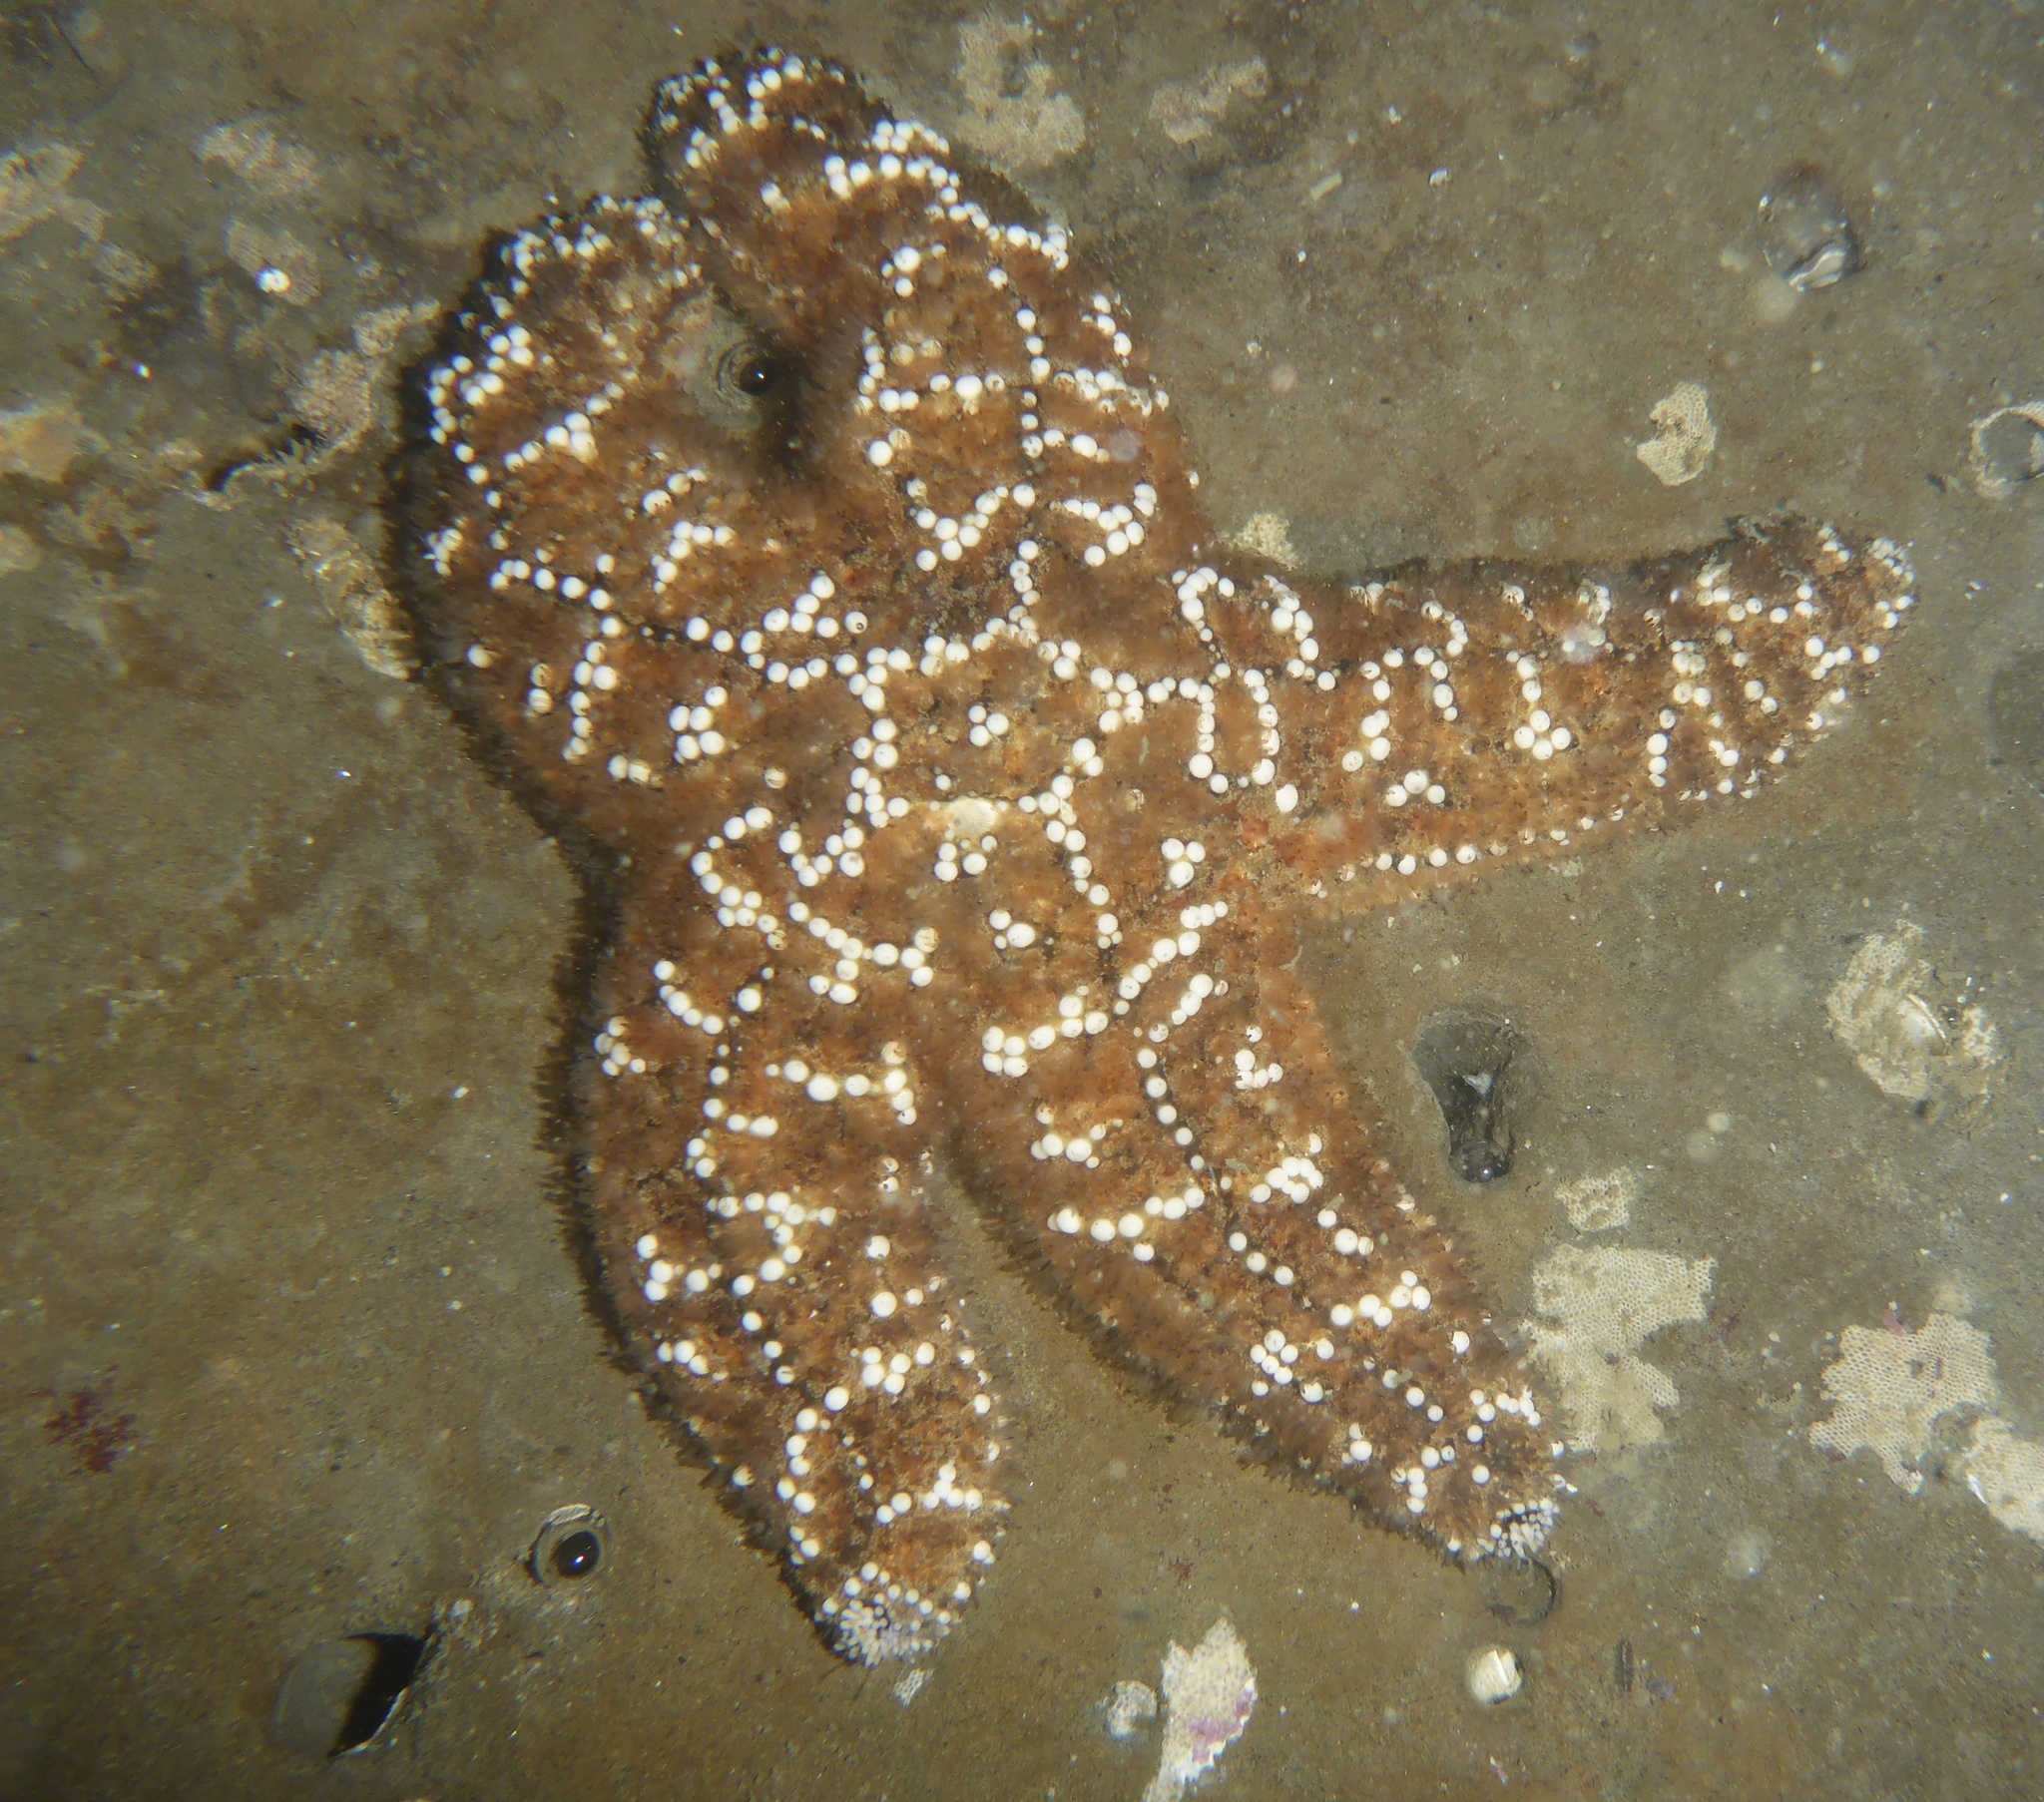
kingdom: Animalia
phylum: Echinodermata
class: Asteroidea
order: Forcipulatida
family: Asteriidae
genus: Pisaster
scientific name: Pisaster ochraceus
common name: Ochre stars
